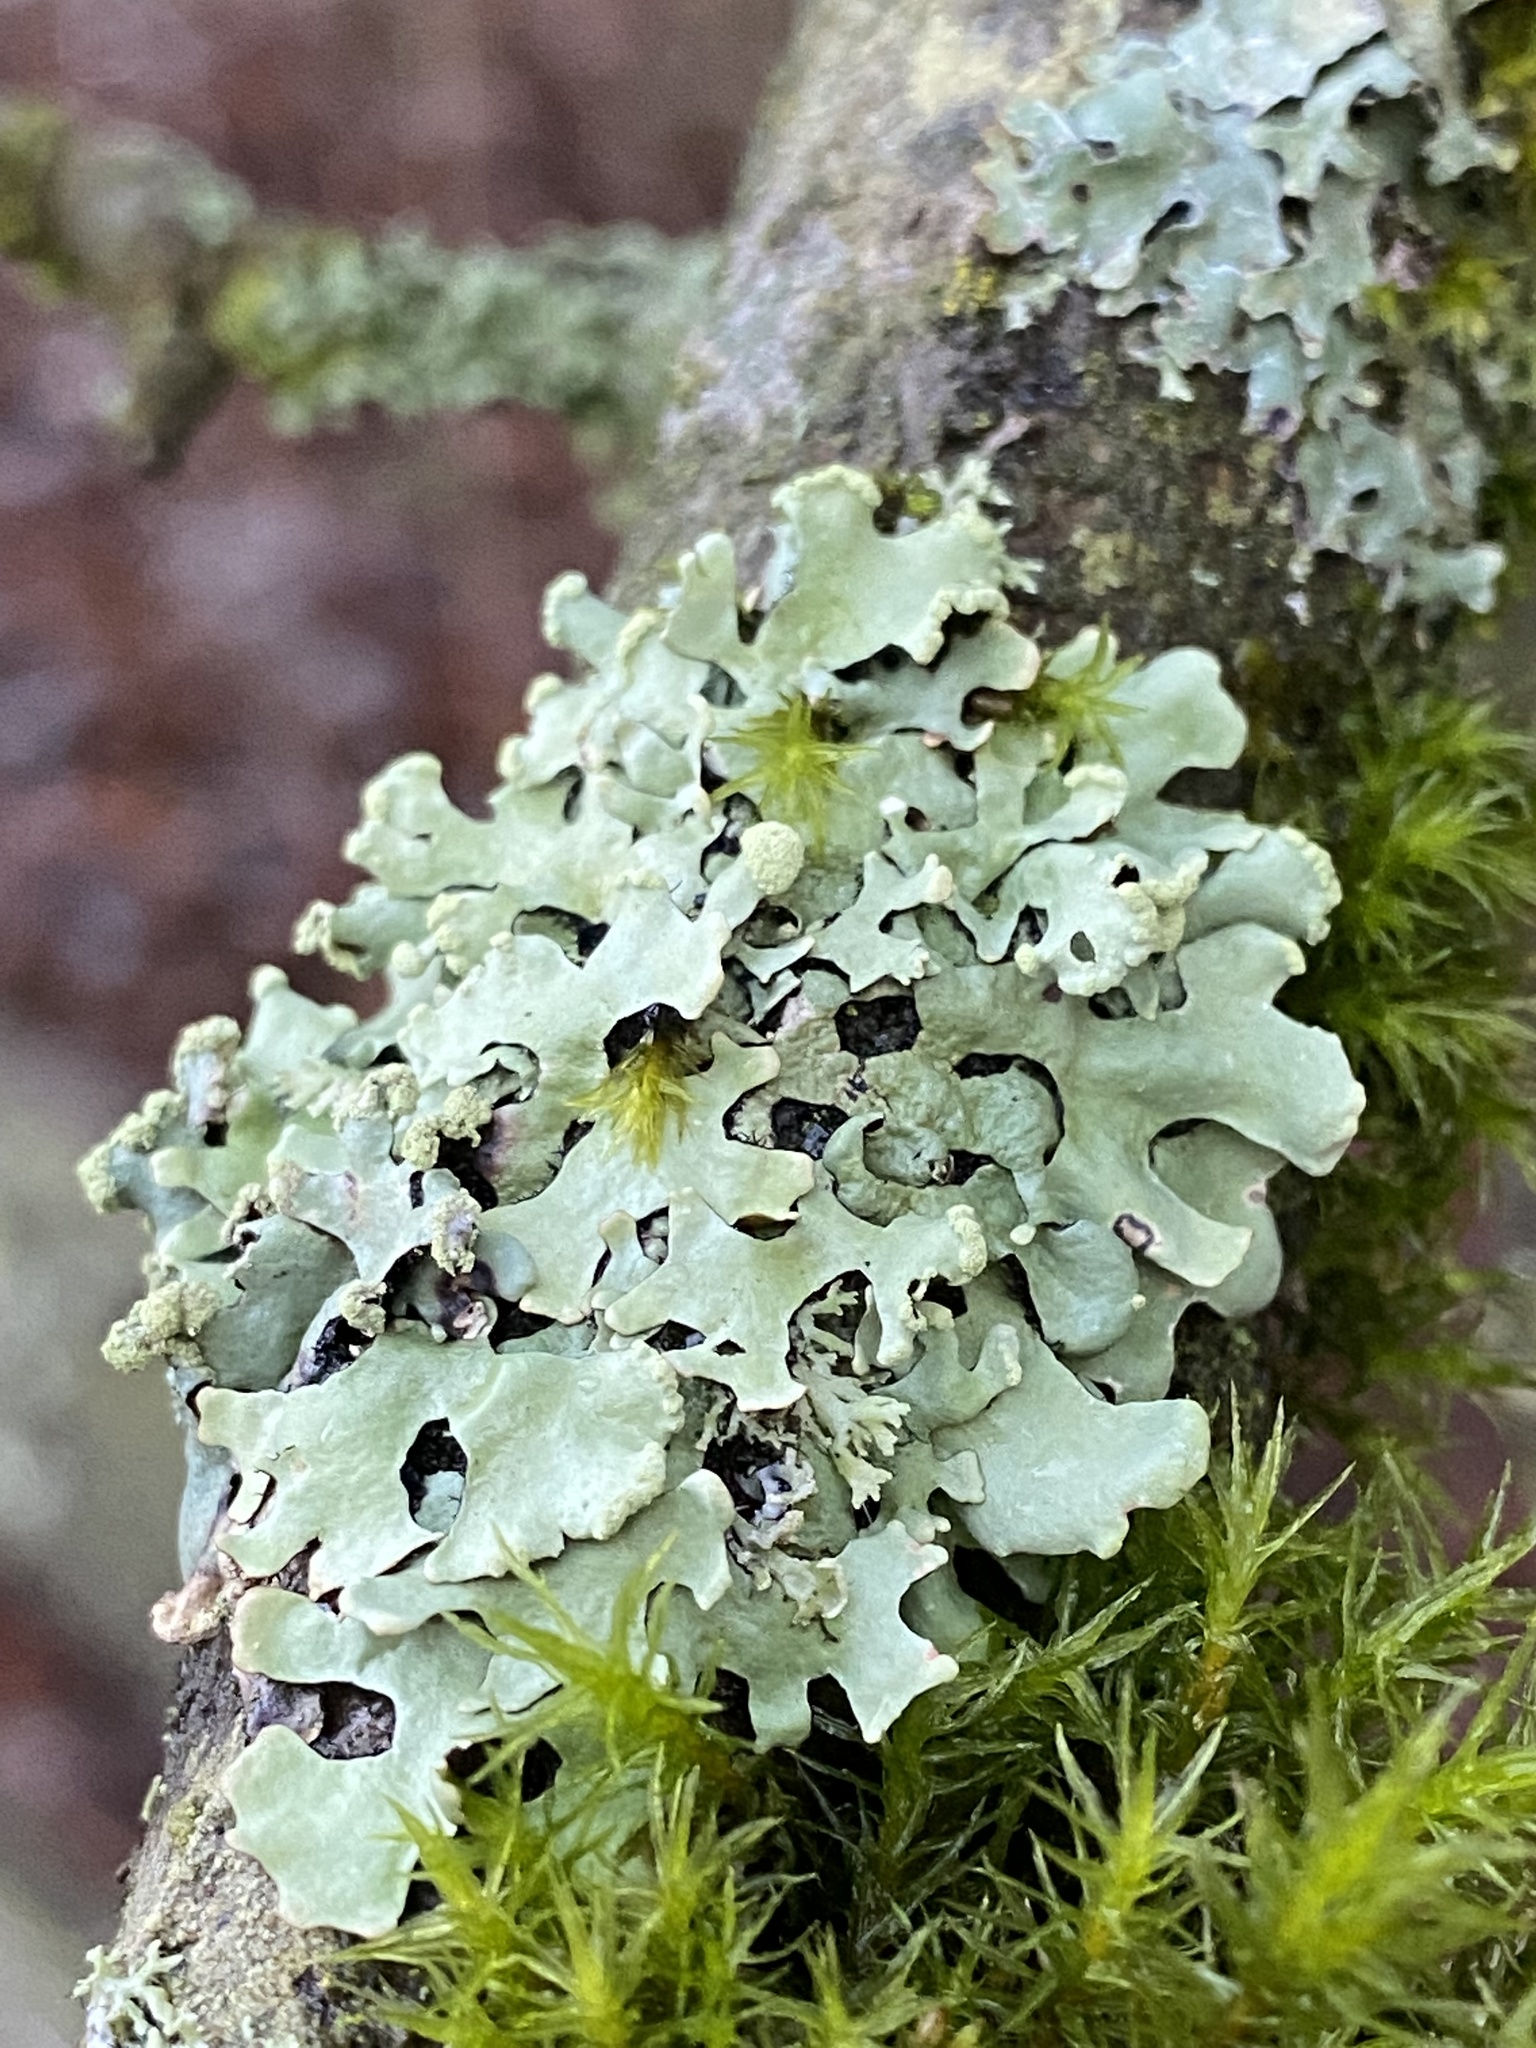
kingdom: Fungi
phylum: Ascomycota
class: Lecanoromycetes
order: Lecanorales
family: Parmeliaceae
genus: Hypotrachyna
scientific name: Hypotrachyna sinuosa
